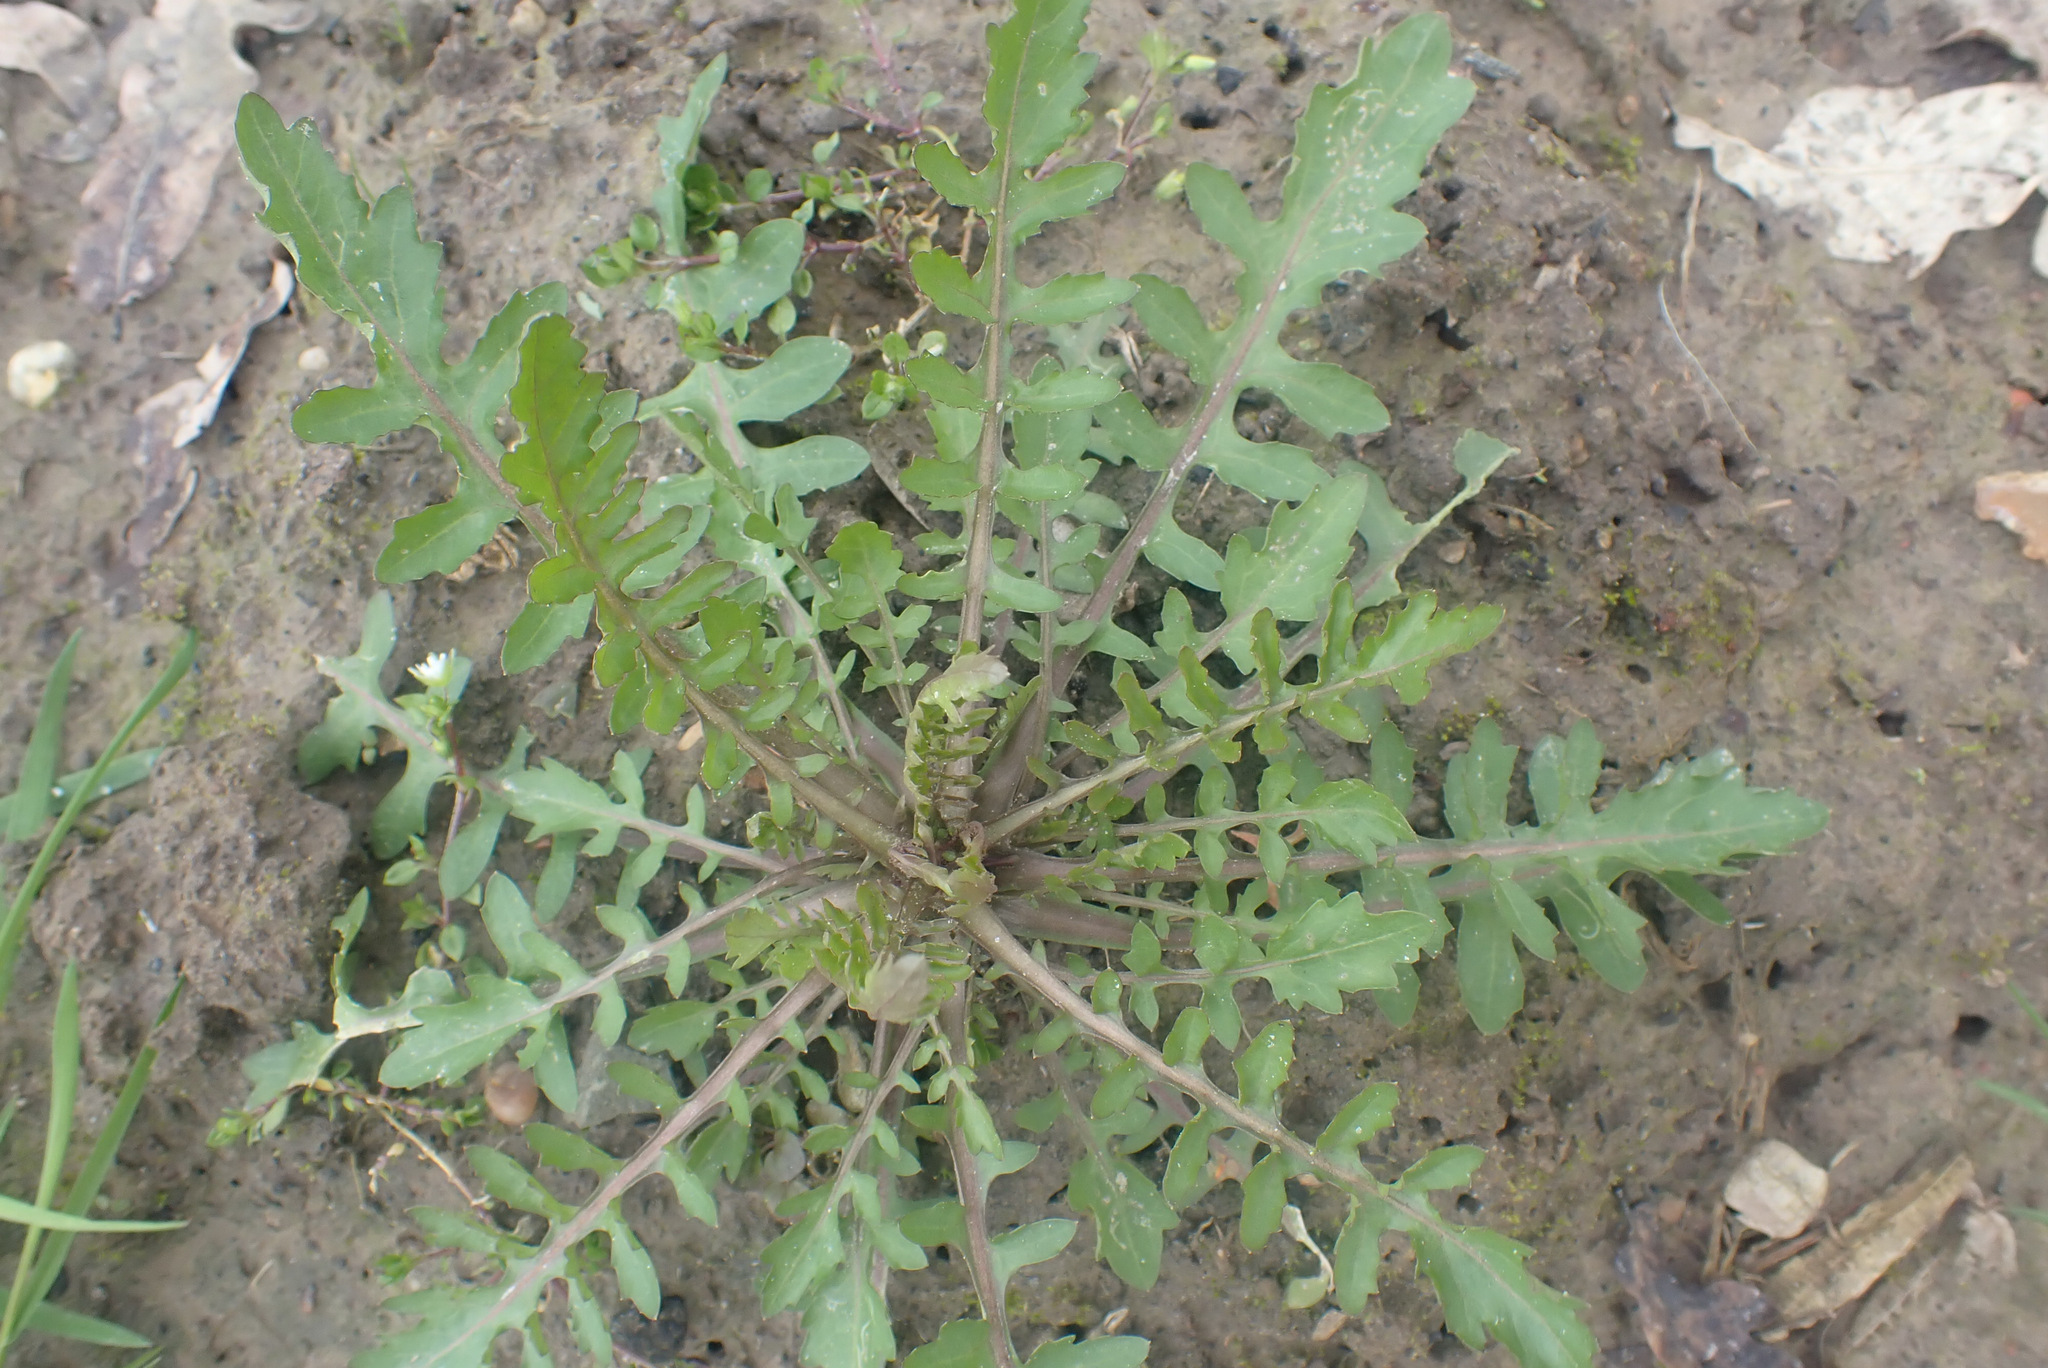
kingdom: Plantae
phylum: Tracheophyta
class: Magnoliopsida
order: Brassicales
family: Brassicaceae
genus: Rorippa
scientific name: Rorippa sylvestris
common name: Creeping yellowcress
